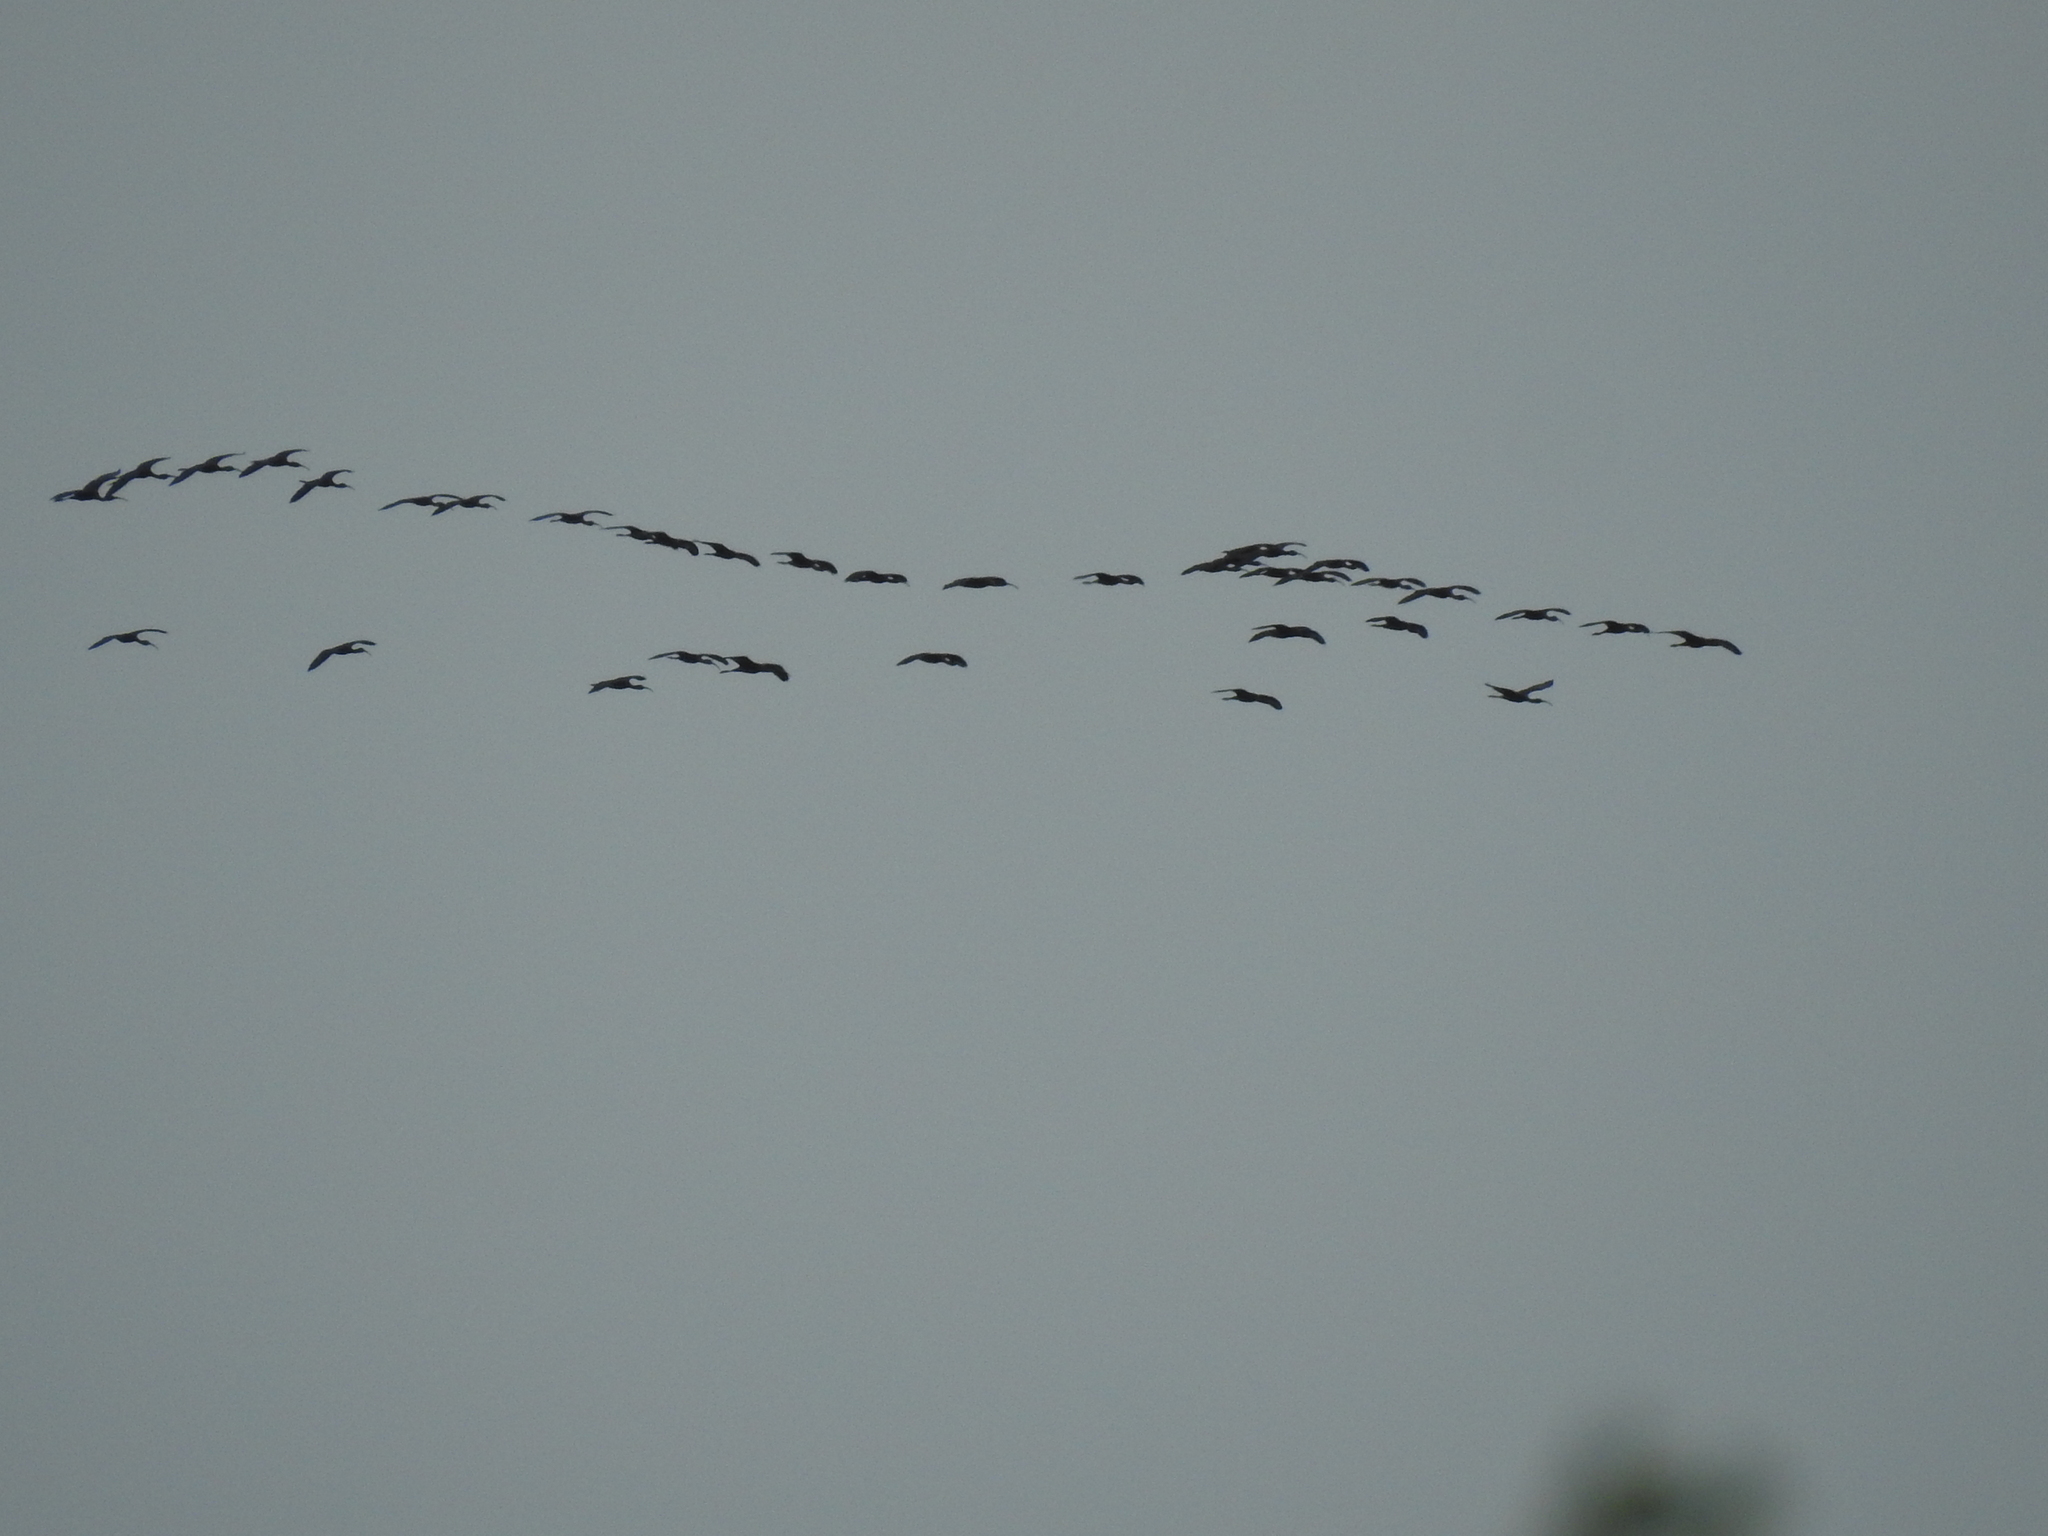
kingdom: Animalia
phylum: Chordata
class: Aves
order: Pelecaniformes
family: Threskiornithidae
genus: Plegadis
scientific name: Plegadis falcinellus
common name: Glossy ibis
